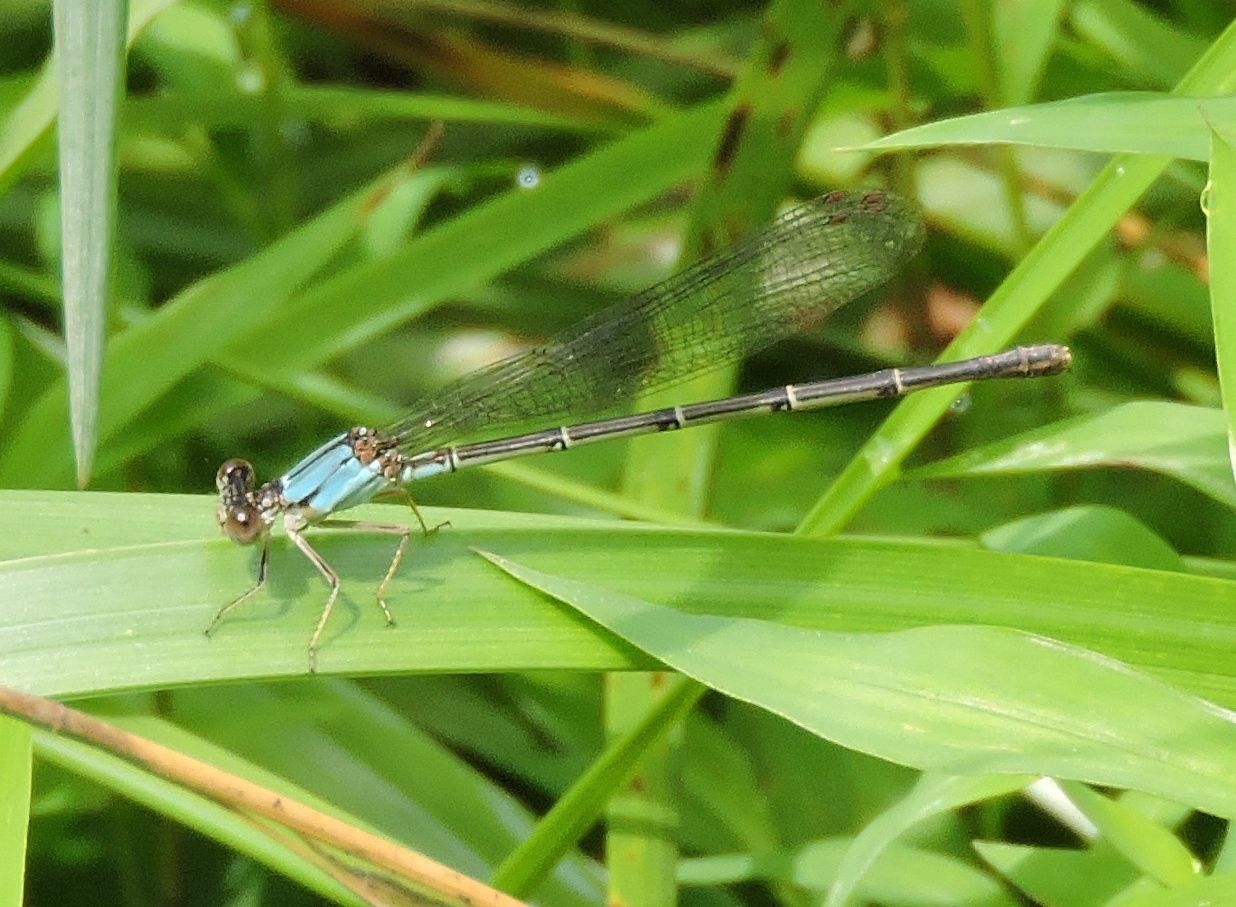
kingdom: Animalia
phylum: Arthropoda
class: Insecta
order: Odonata
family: Coenagrionidae
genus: Argia
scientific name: Argia apicalis
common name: Blue-fronted dancer
